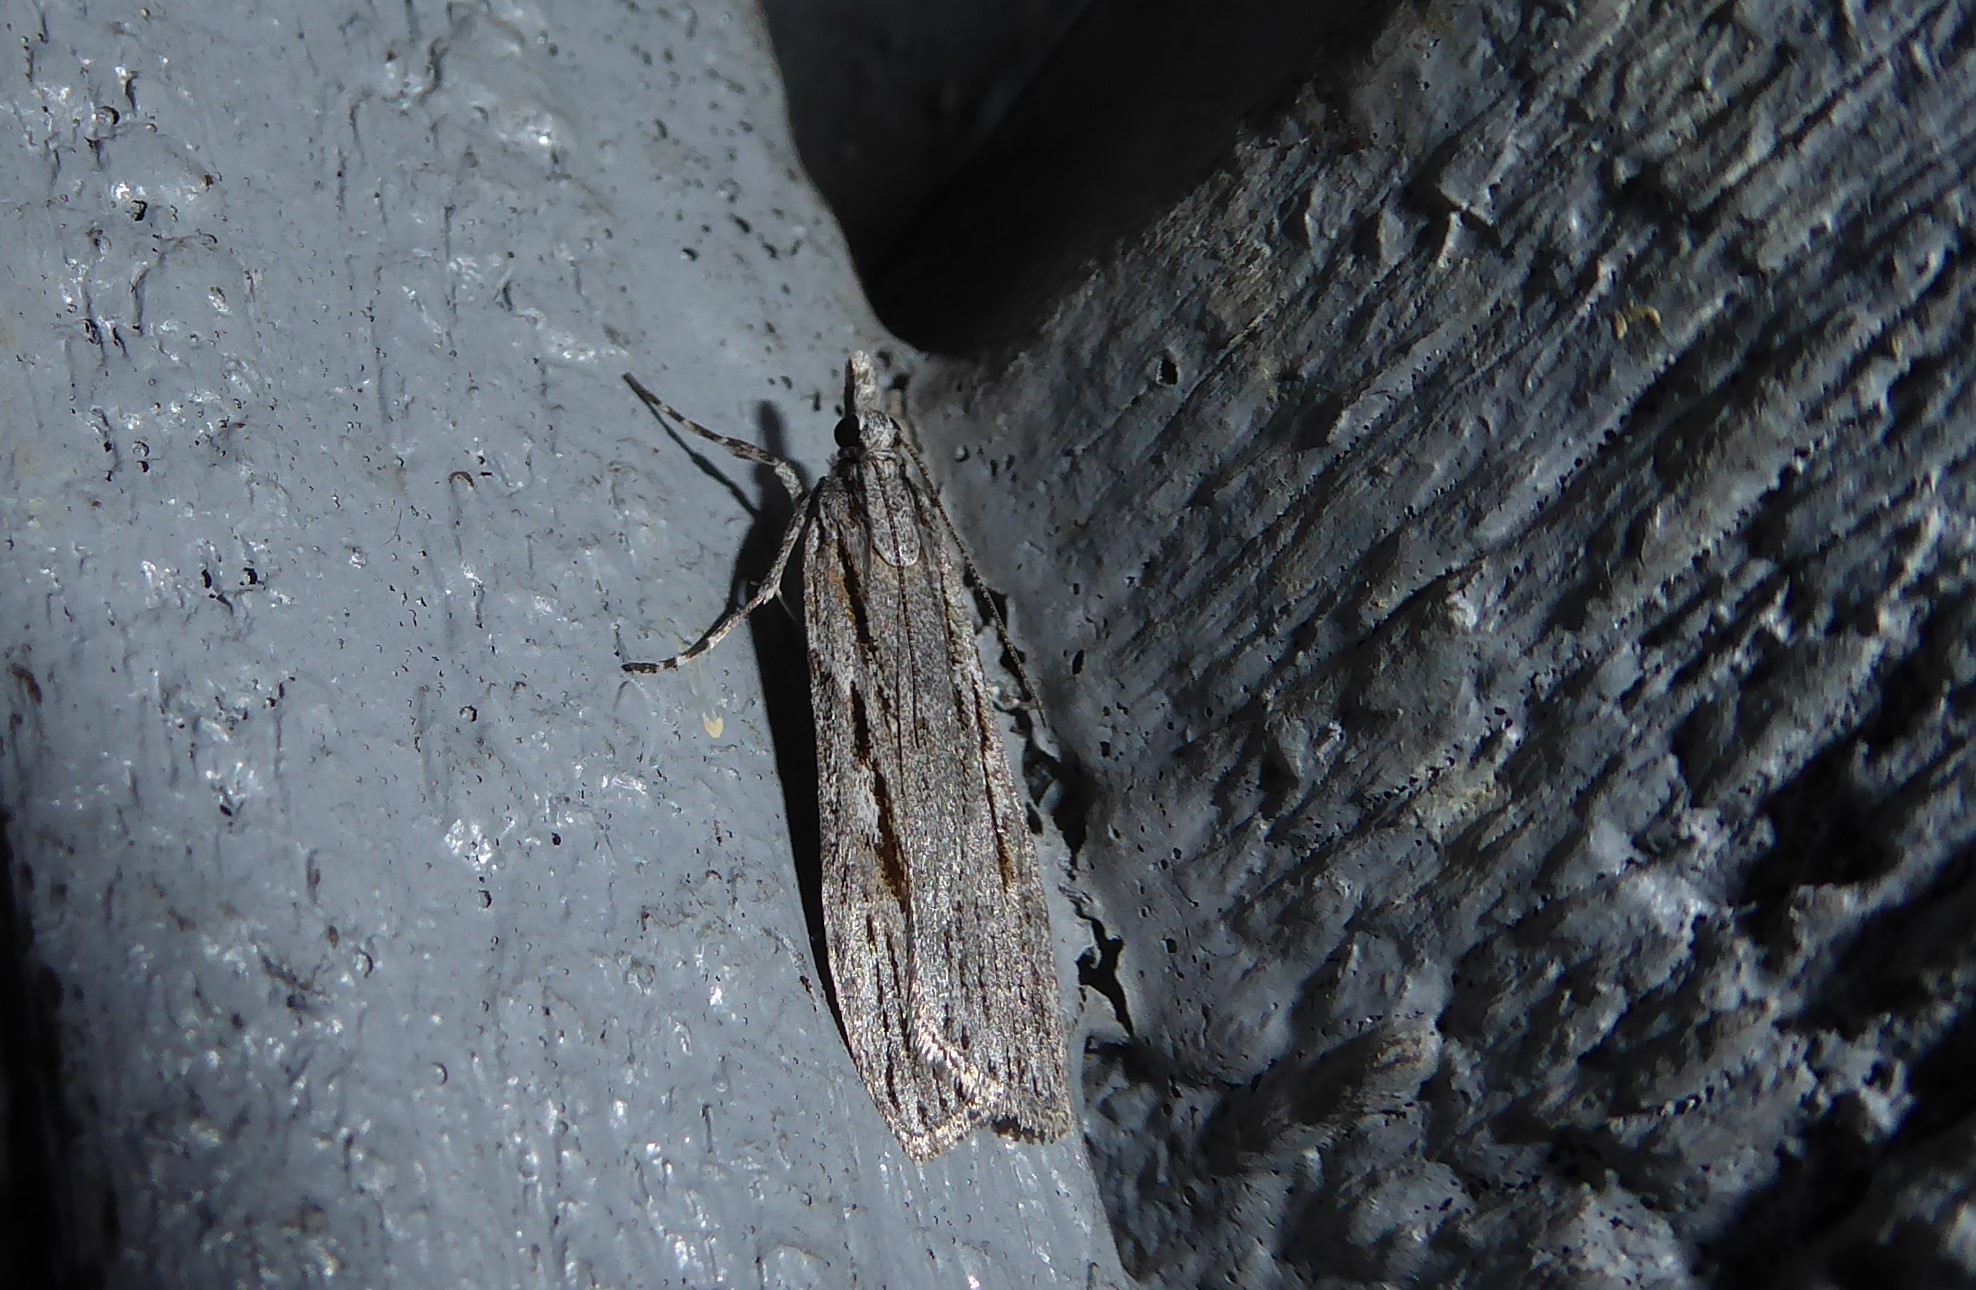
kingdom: Animalia
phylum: Arthropoda
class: Insecta
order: Lepidoptera
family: Crambidae
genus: Scoparia
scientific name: Scoparia indistinctalis
